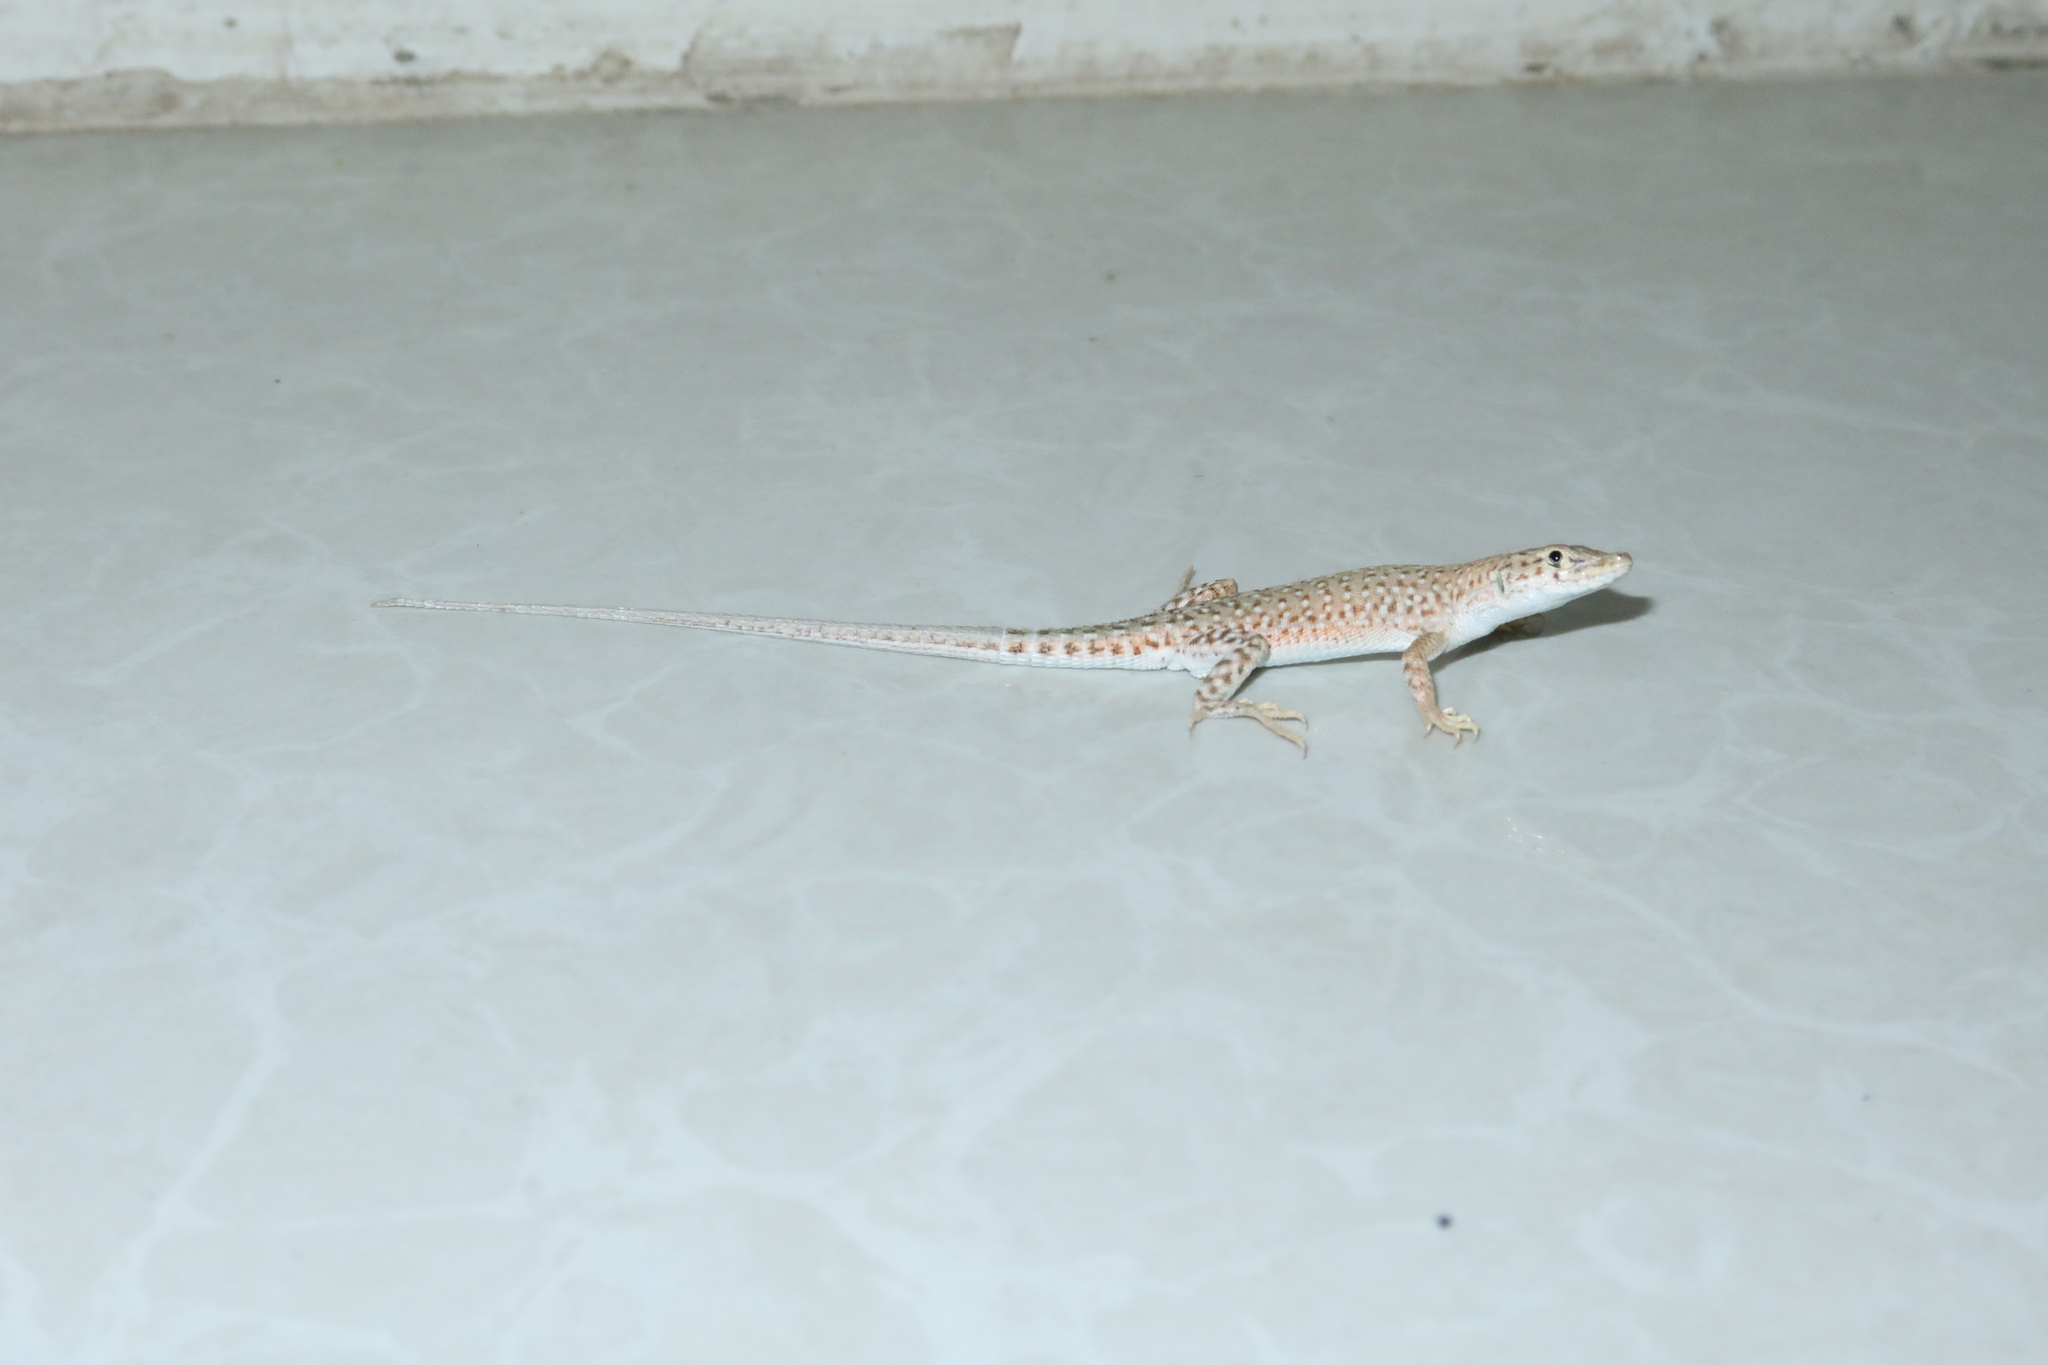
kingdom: Animalia
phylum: Chordata
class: Squamata
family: Lacertidae
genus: Mesalina
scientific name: Mesalina guttulata
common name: Desert lacerta
